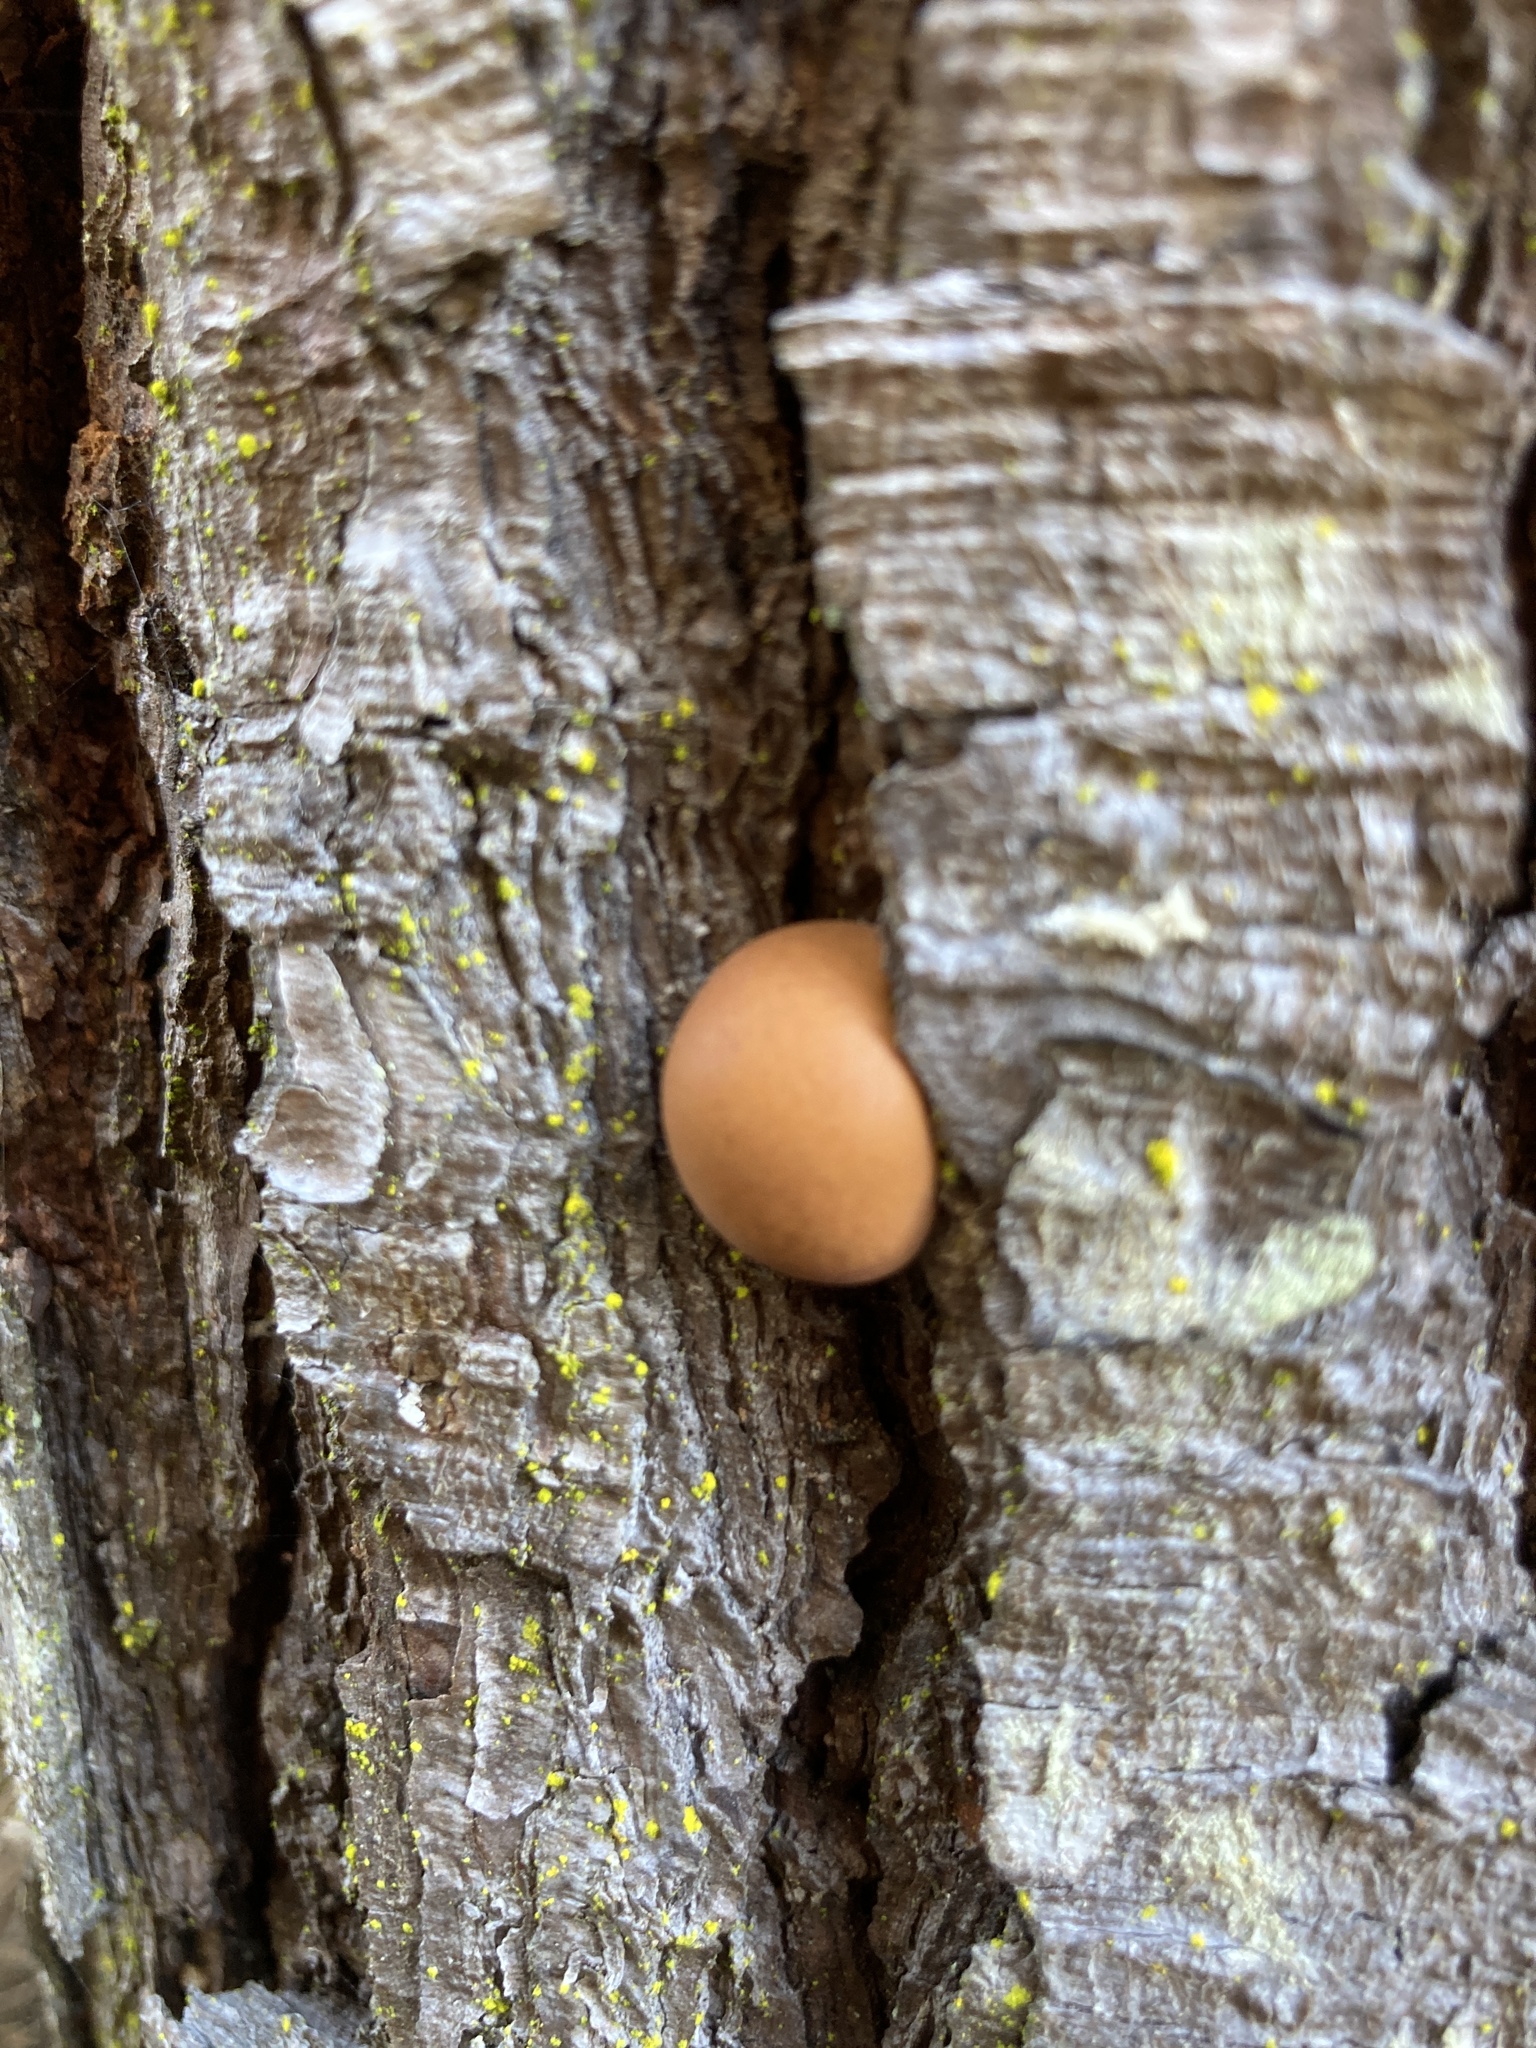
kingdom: Fungi
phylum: Basidiomycota
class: Agaricomycetes
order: Polyporales
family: Polyporaceae
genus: Cryptoporus
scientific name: Cryptoporus volvatus
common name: Veiled polypore
